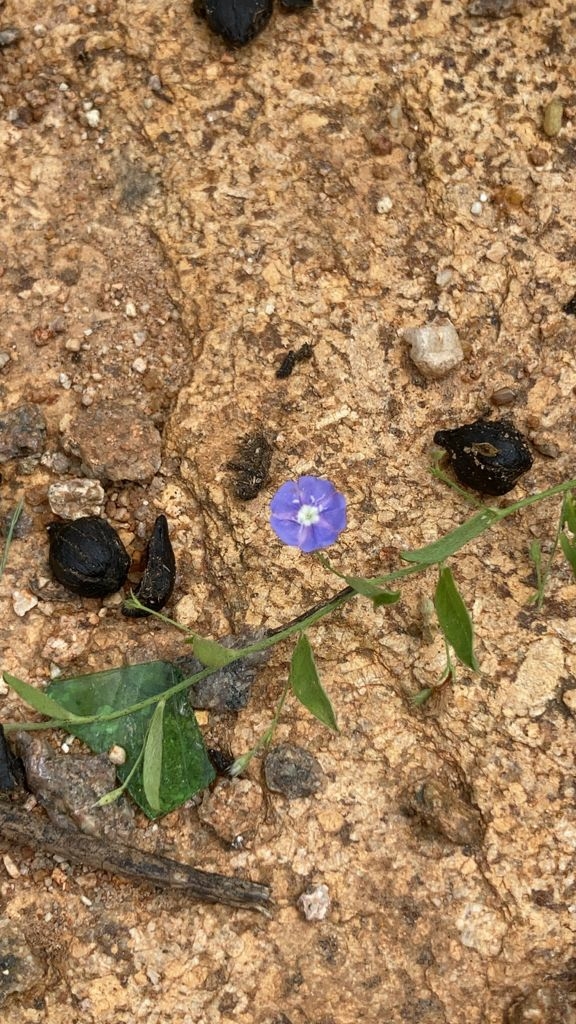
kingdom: Plantae
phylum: Tracheophyta
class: Magnoliopsida
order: Solanales
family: Convolvulaceae
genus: Evolvulus
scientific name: Evolvulus alsinoides
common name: Slender dwarf morning-glory
